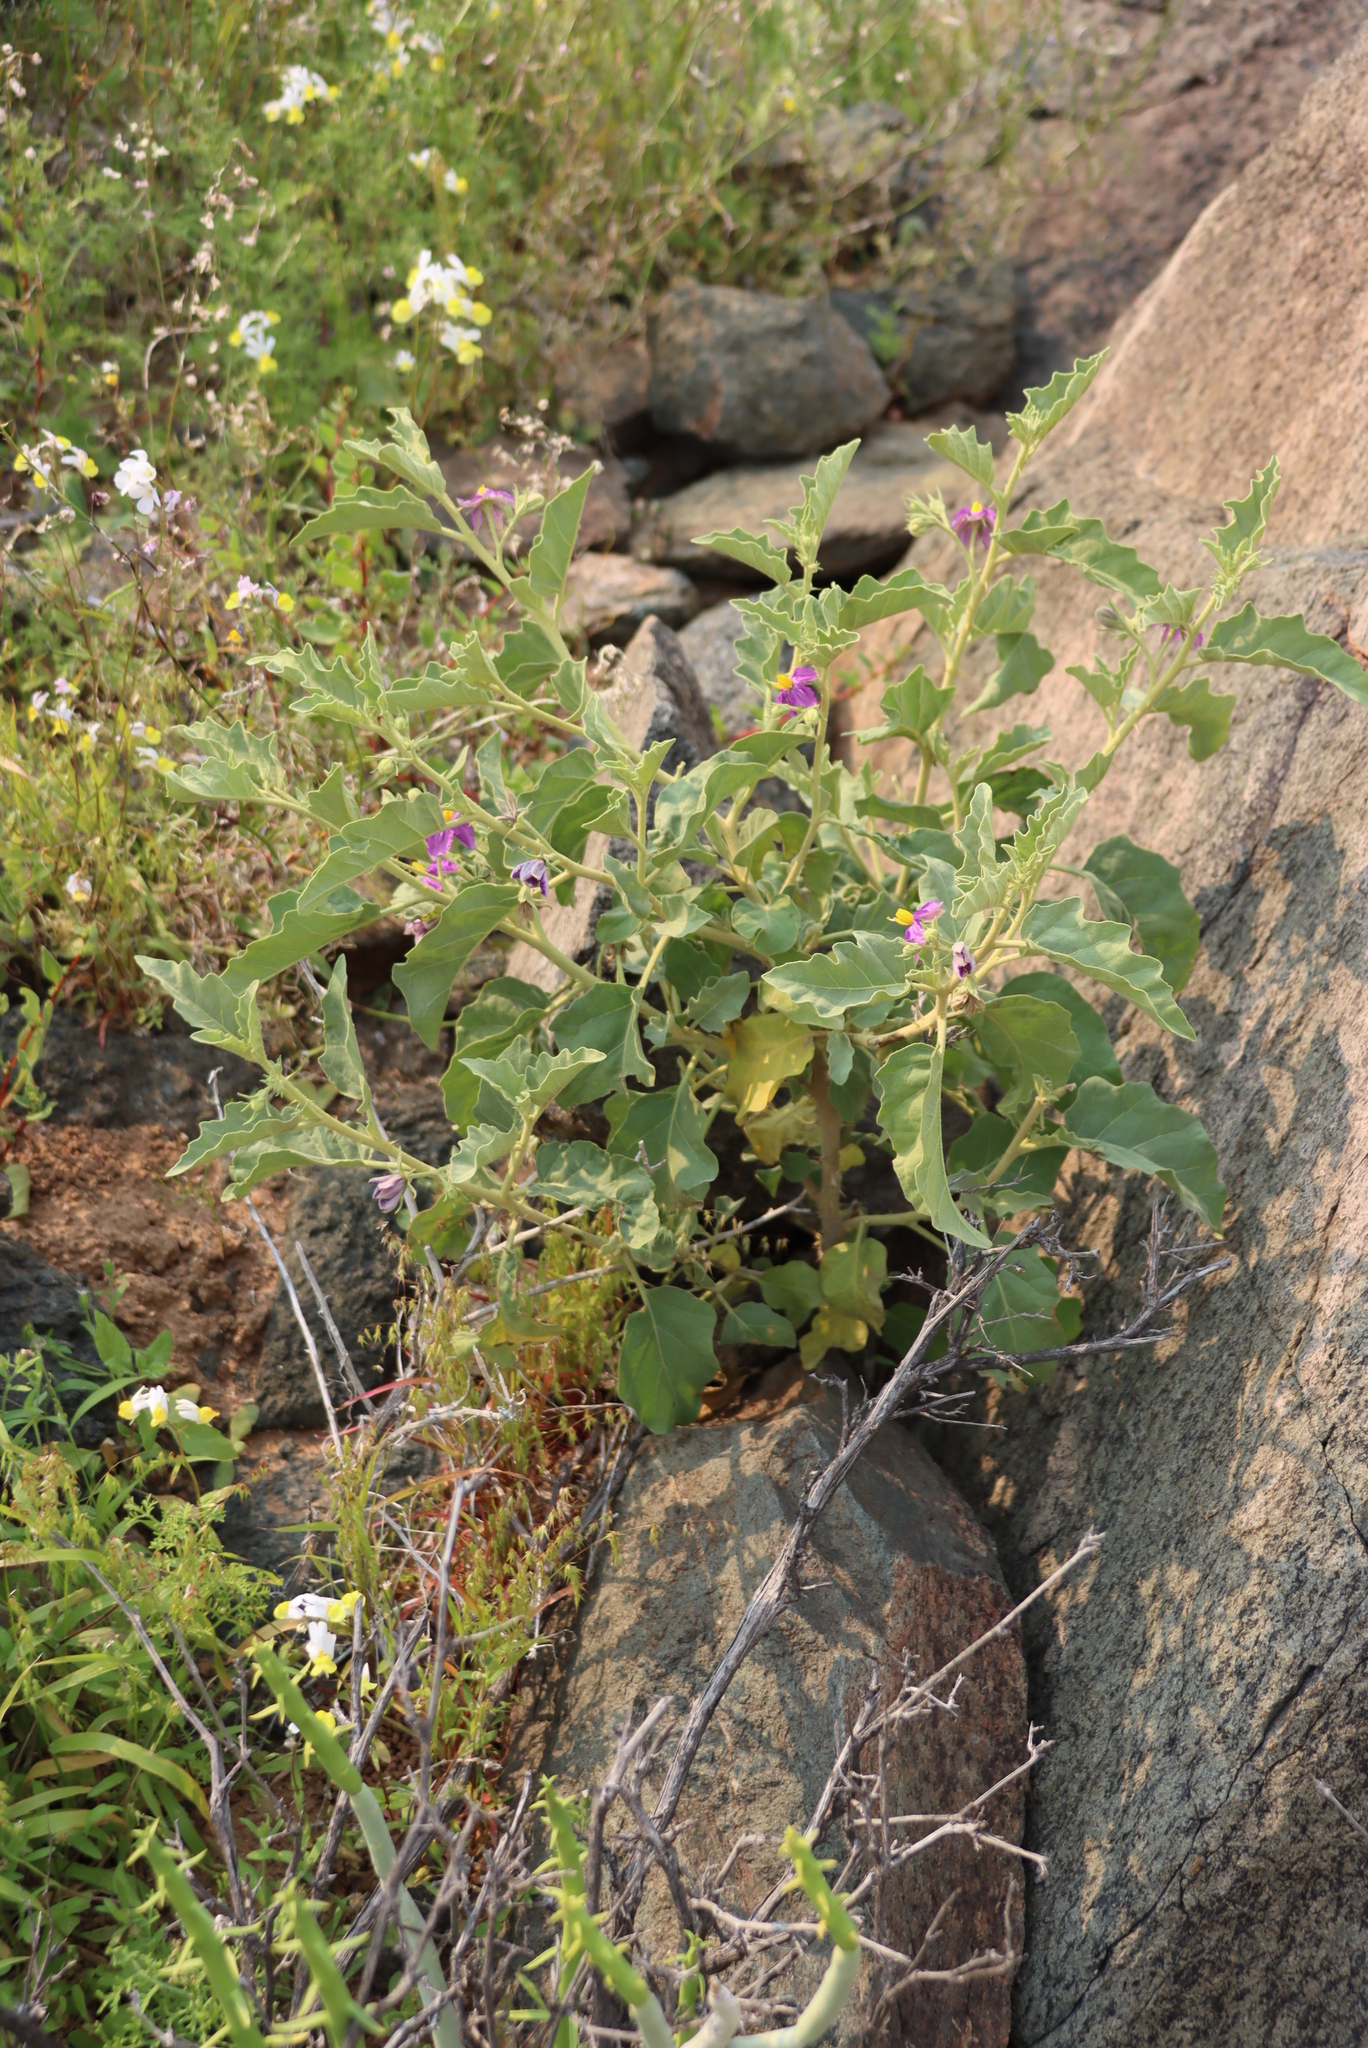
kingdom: Plantae
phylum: Tracheophyta
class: Magnoliopsida
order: Solanales
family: Solanaceae
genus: Solanum
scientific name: Solanum burchellii
